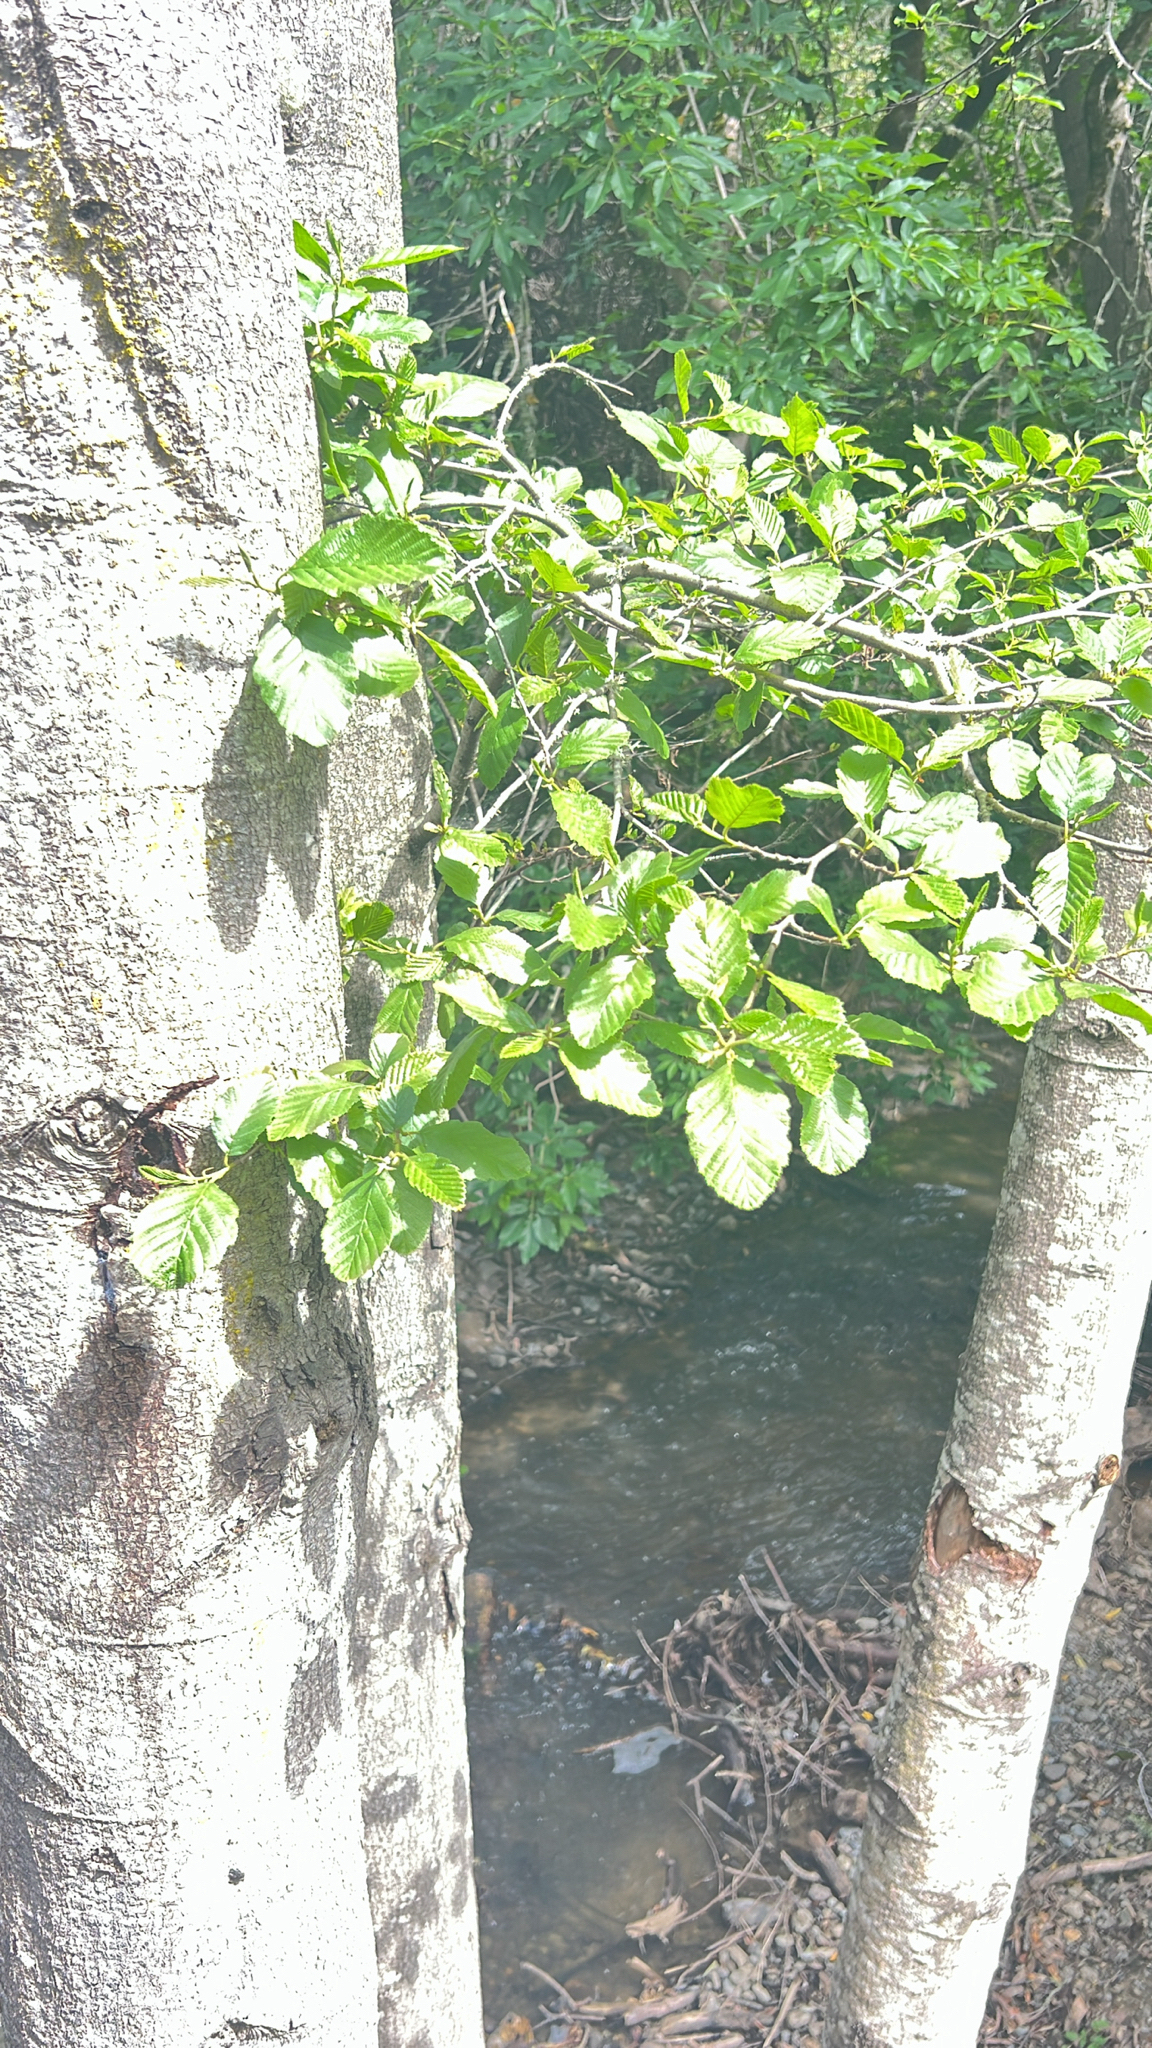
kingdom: Plantae
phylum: Tracheophyta
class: Magnoliopsida
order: Fagales
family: Betulaceae
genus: Alnus
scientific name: Alnus rhombifolia
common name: California alder
